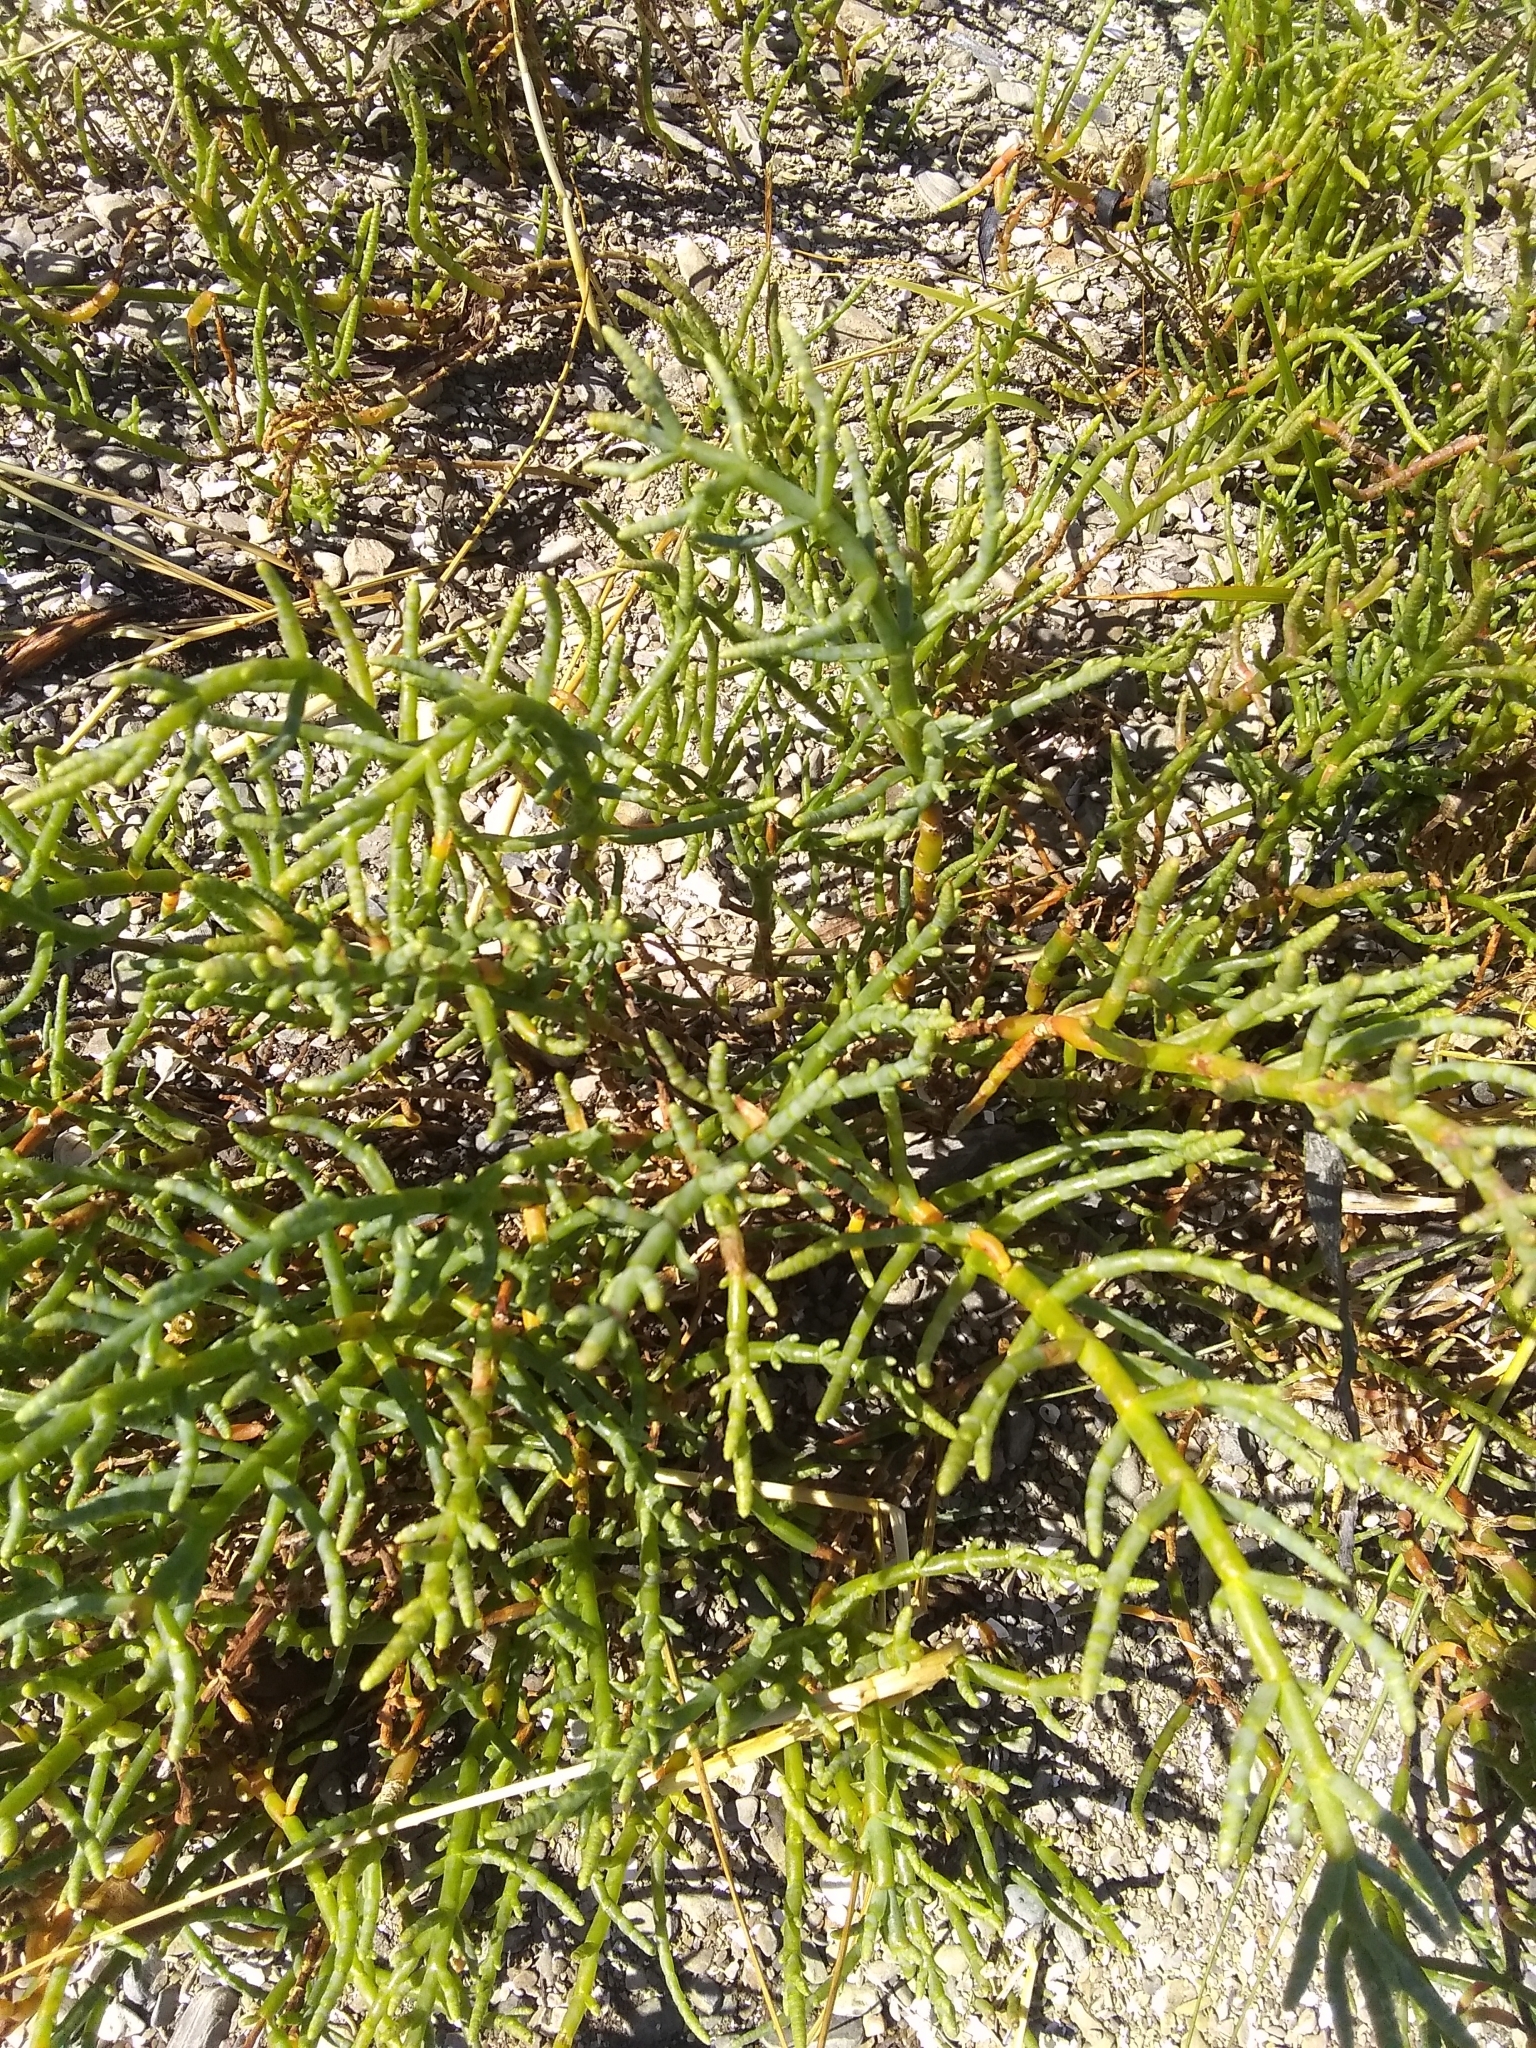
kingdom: Plantae
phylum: Tracheophyta
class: Magnoliopsida
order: Caryophyllales
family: Amaranthaceae
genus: Salicornia
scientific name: Salicornia pacifica
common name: Pacific glasswort
